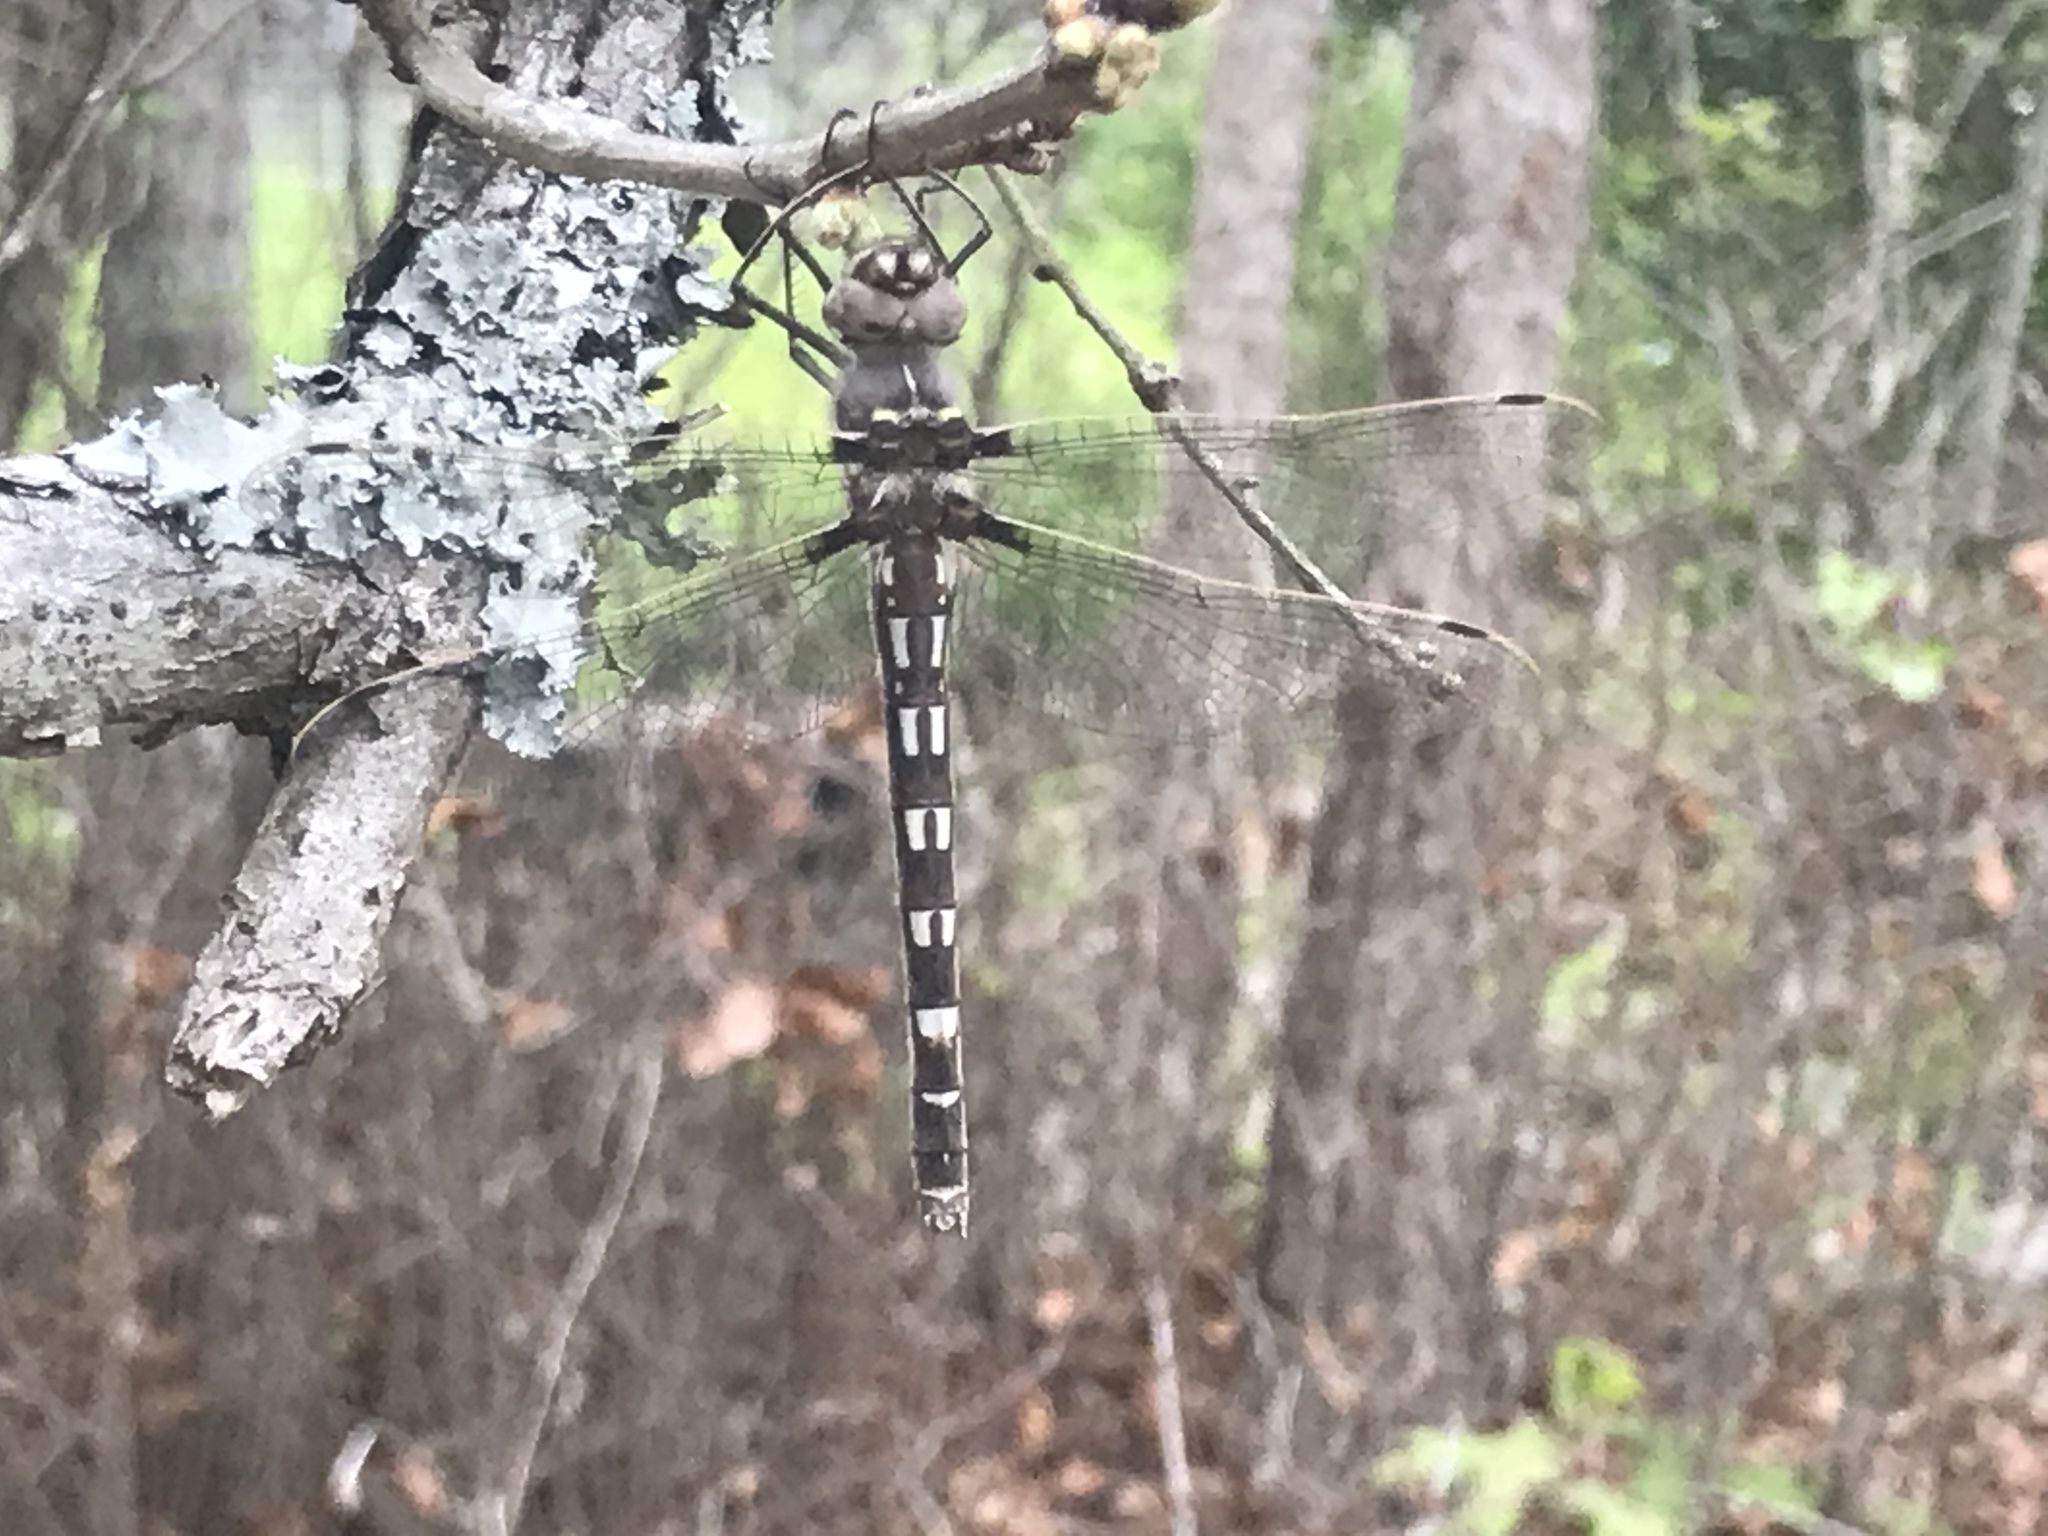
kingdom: Animalia
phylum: Arthropoda
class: Insecta
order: Odonata
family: Macromiidae
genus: Didymops
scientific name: Didymops transversa
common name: Stream cruiser
